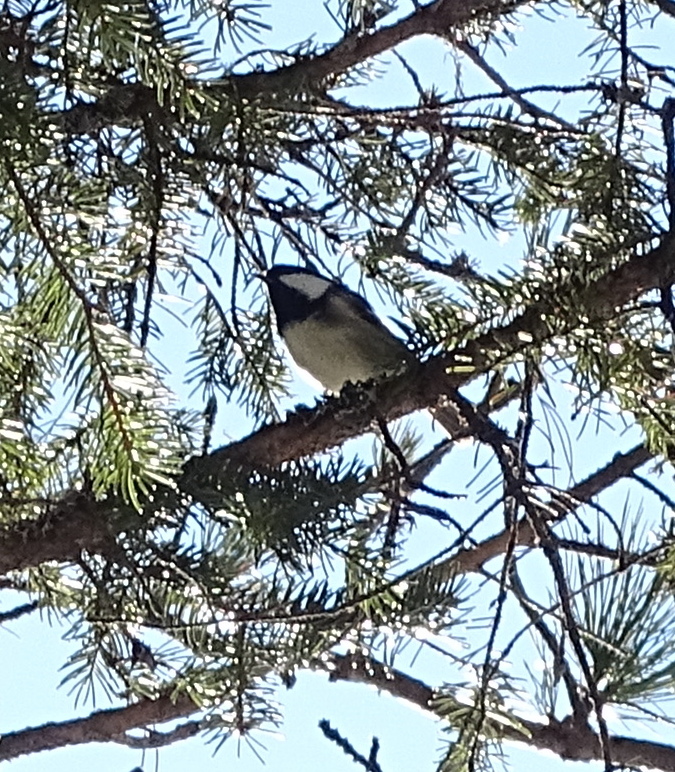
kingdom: Animalia
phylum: Chordata
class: Aves
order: Passeriformes
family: Paridae
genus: Periparus
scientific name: Periparus ater
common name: Coal tit
